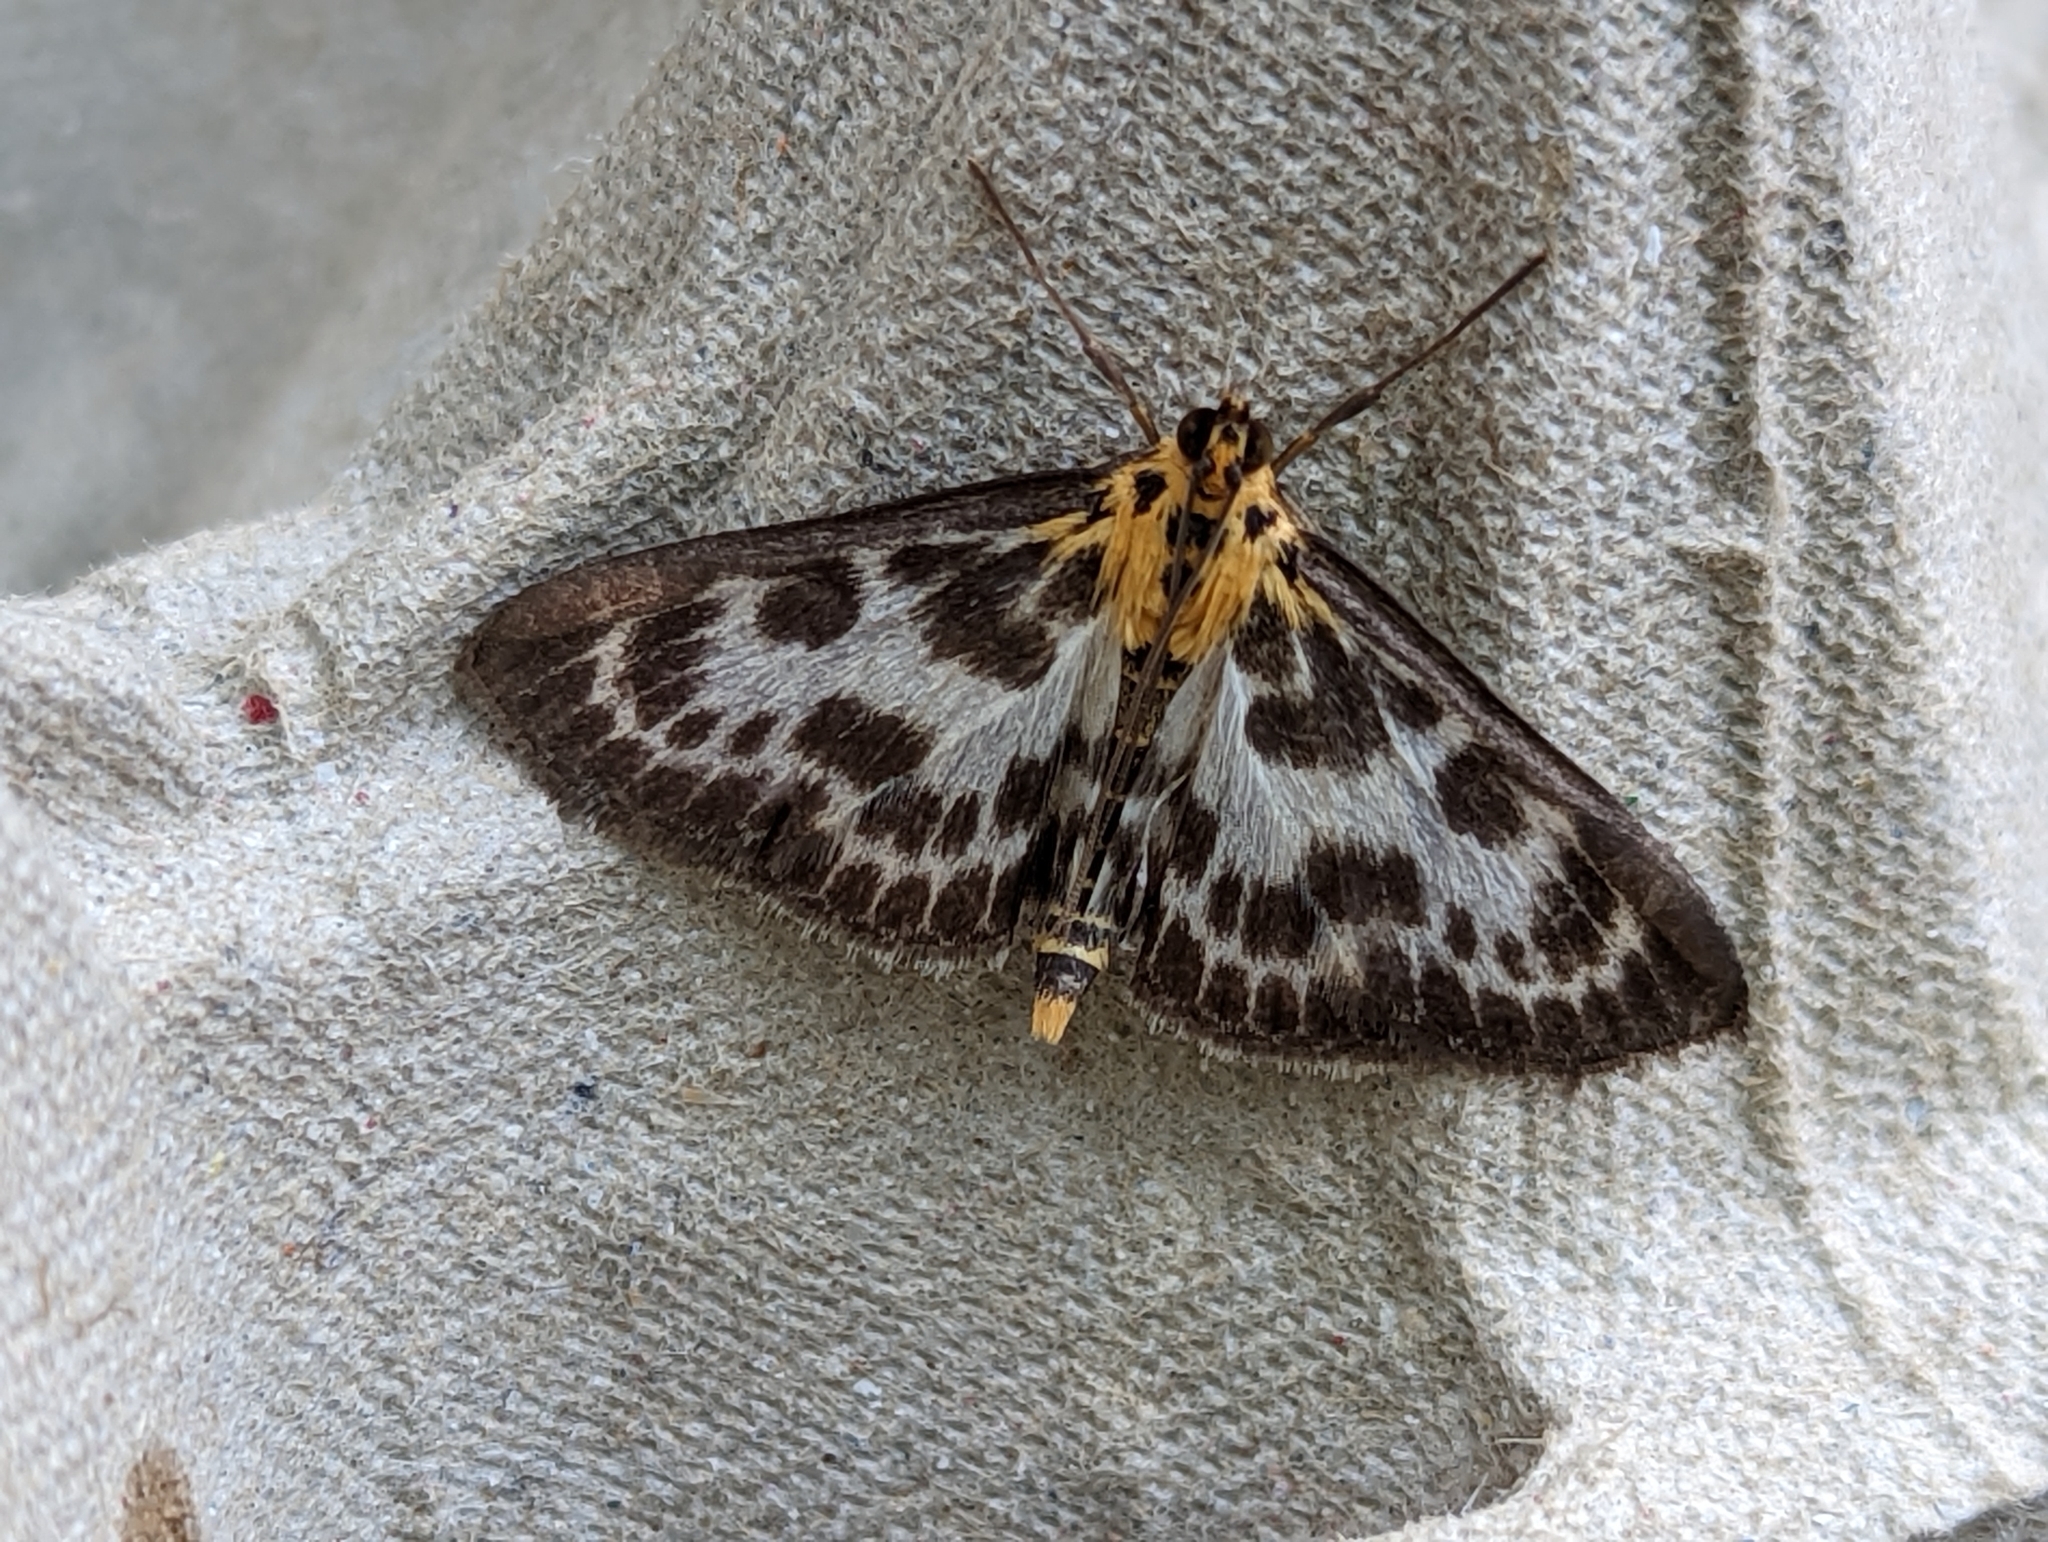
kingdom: Animalia
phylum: Arthropoda
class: Insecta
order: Lepidoptera
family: Crambidae
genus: Anania
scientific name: Anania hortulata
